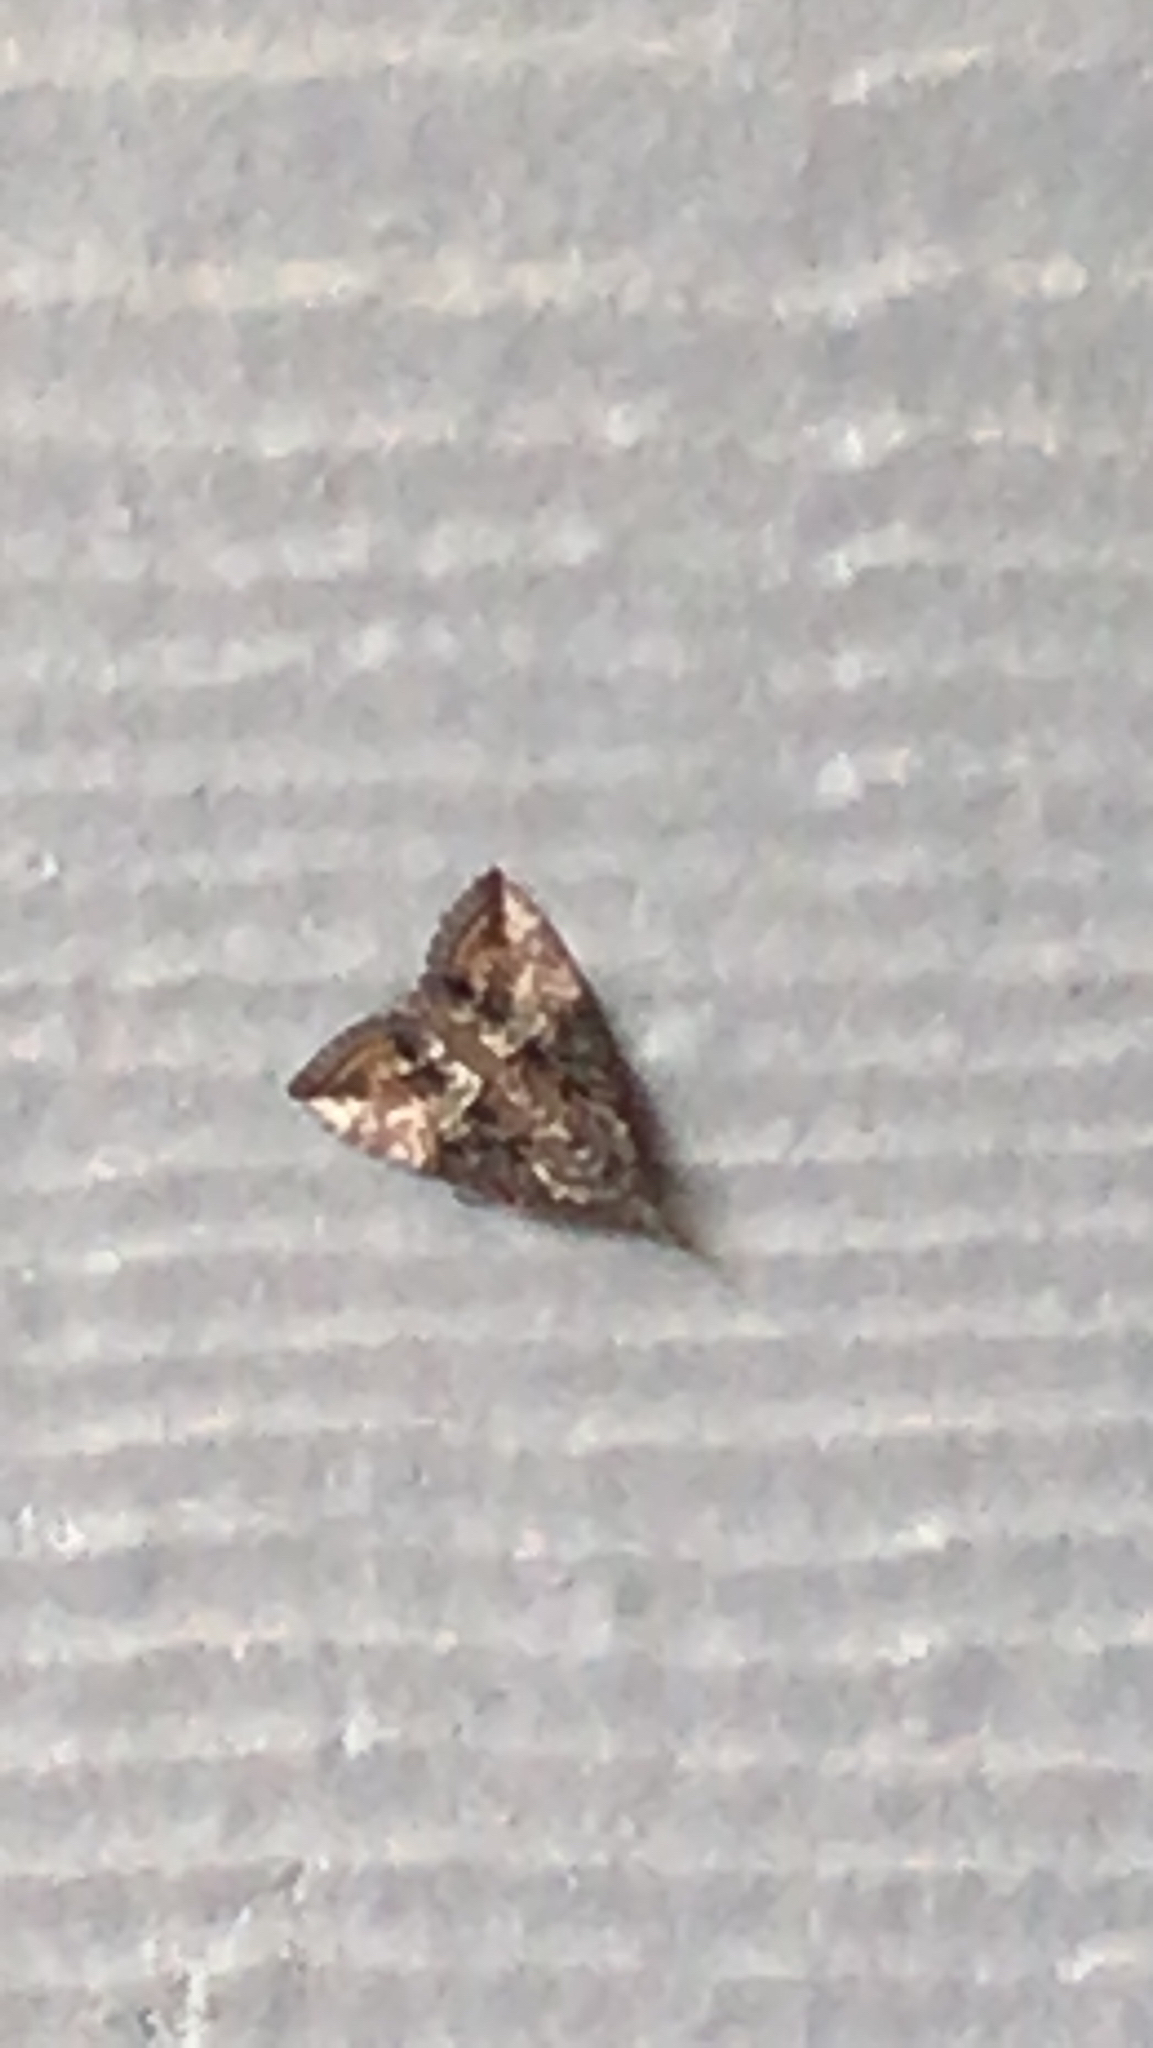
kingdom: Animalia
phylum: Arthropoda
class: Insecta
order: Lepidoptera
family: Erebidae
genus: Hypena
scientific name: Hypena scabra
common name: Green cloverworm
